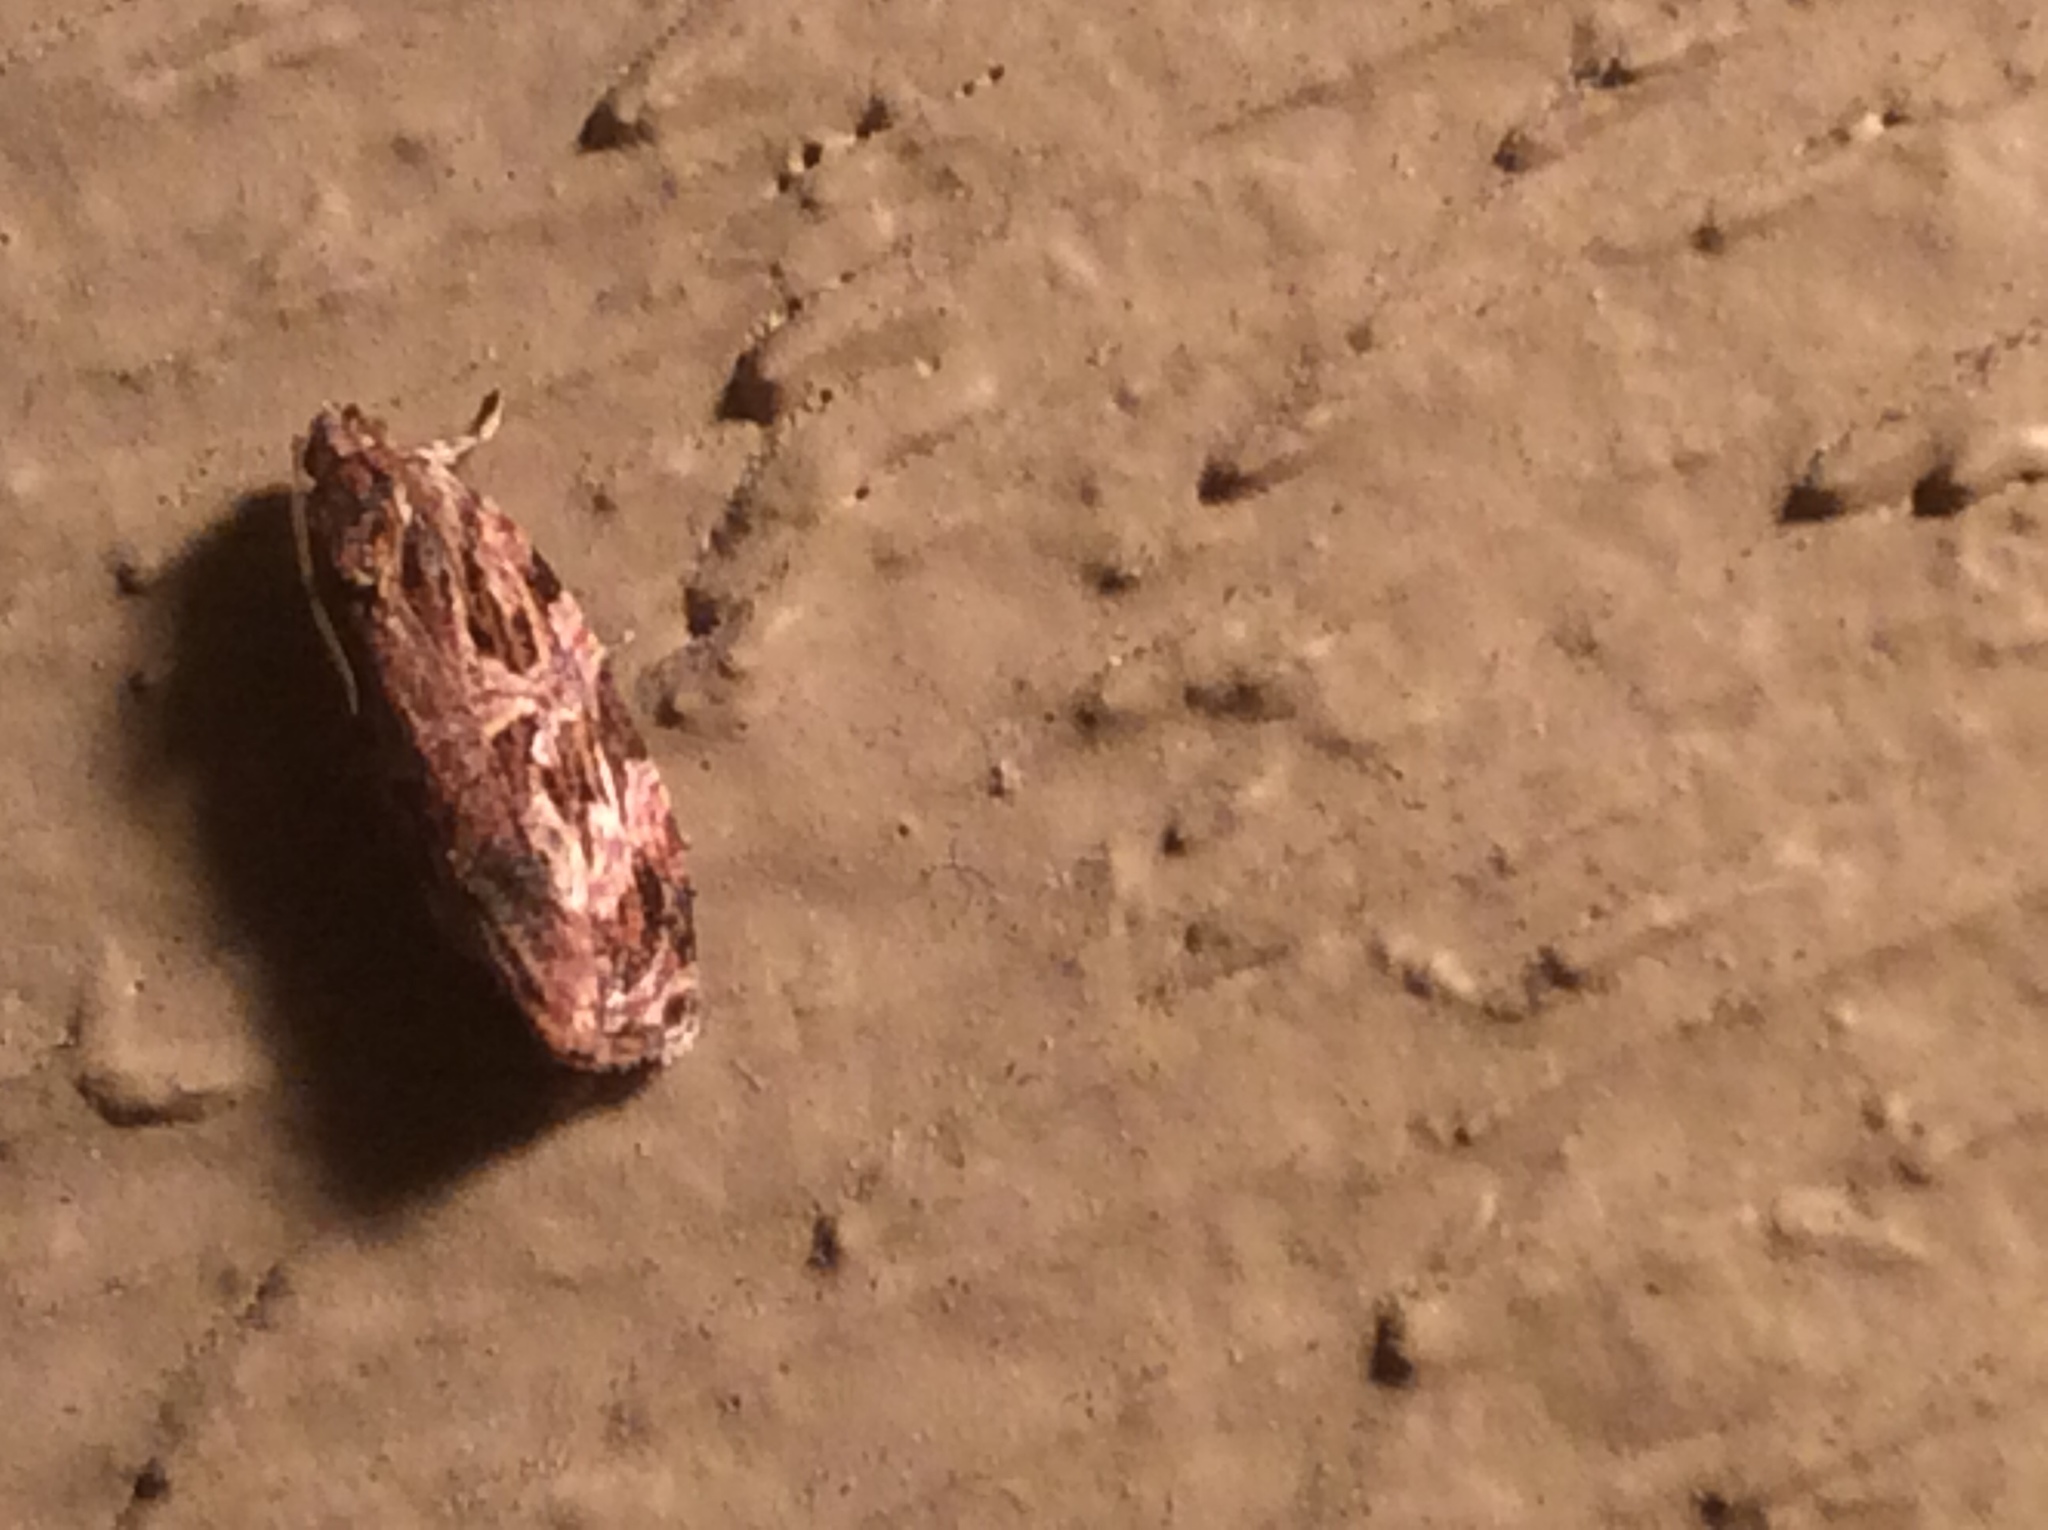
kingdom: Animalia
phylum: Arthropoda
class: Insecta
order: Lepidoptera
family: Tortricidae
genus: Phaecasiophora
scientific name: Phaecasiophora confixana
